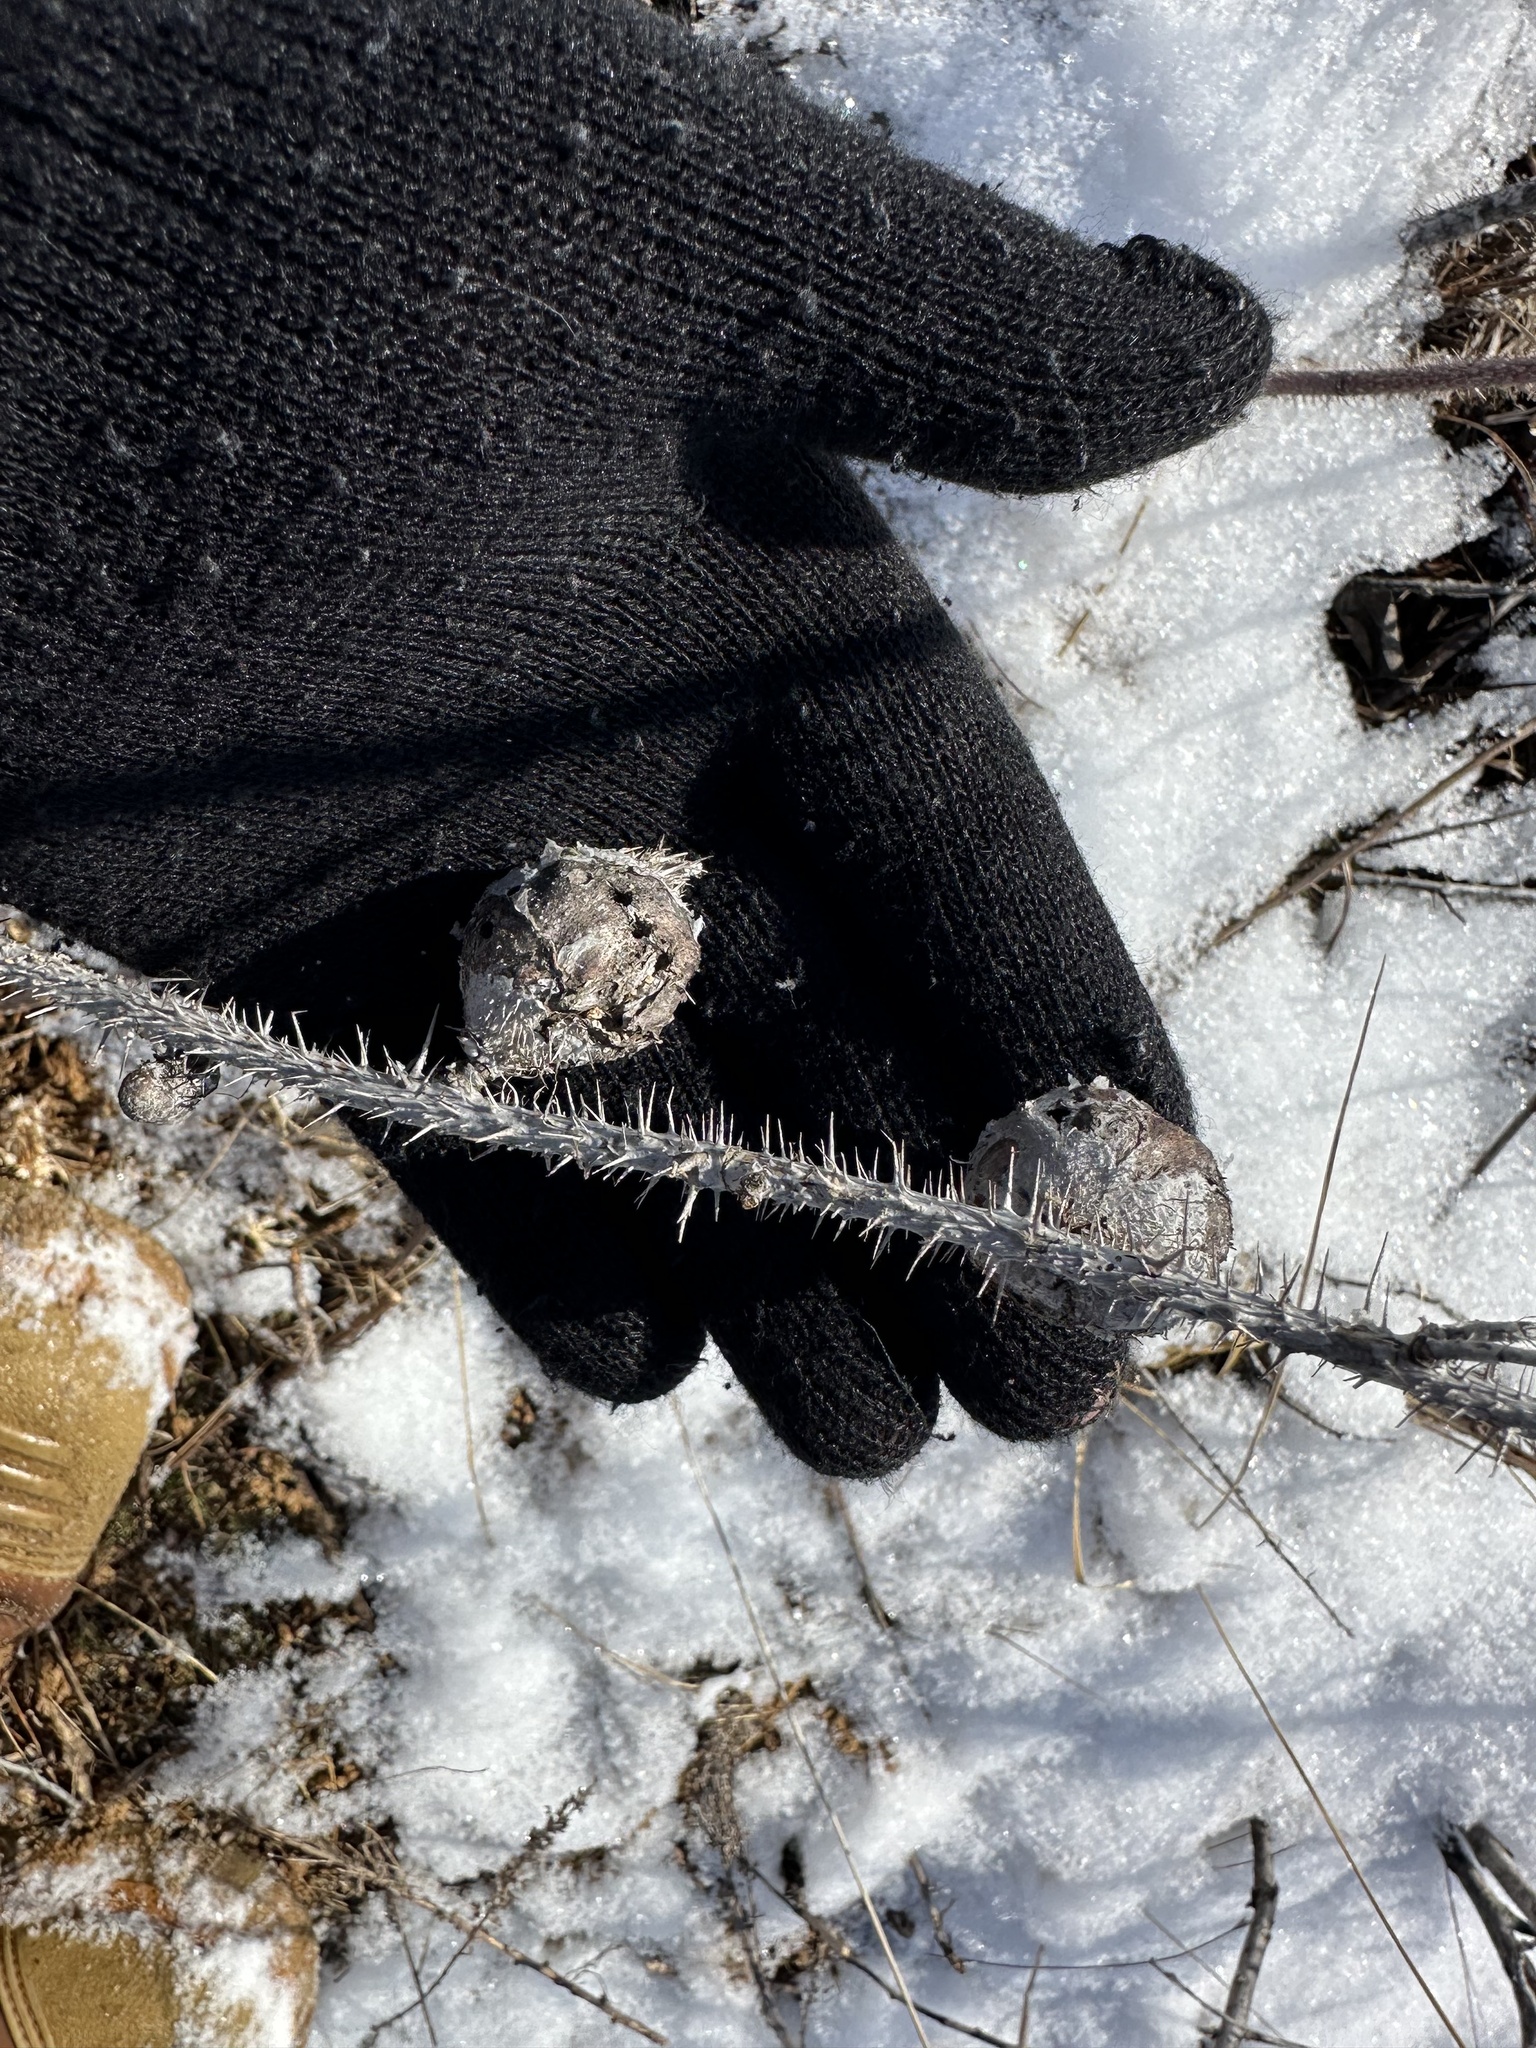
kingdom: Animalia
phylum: Arthropoda
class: Insecta
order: Hymenoptera
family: Cynipidae
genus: Diplolepis
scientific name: Diplolepis spinosa
